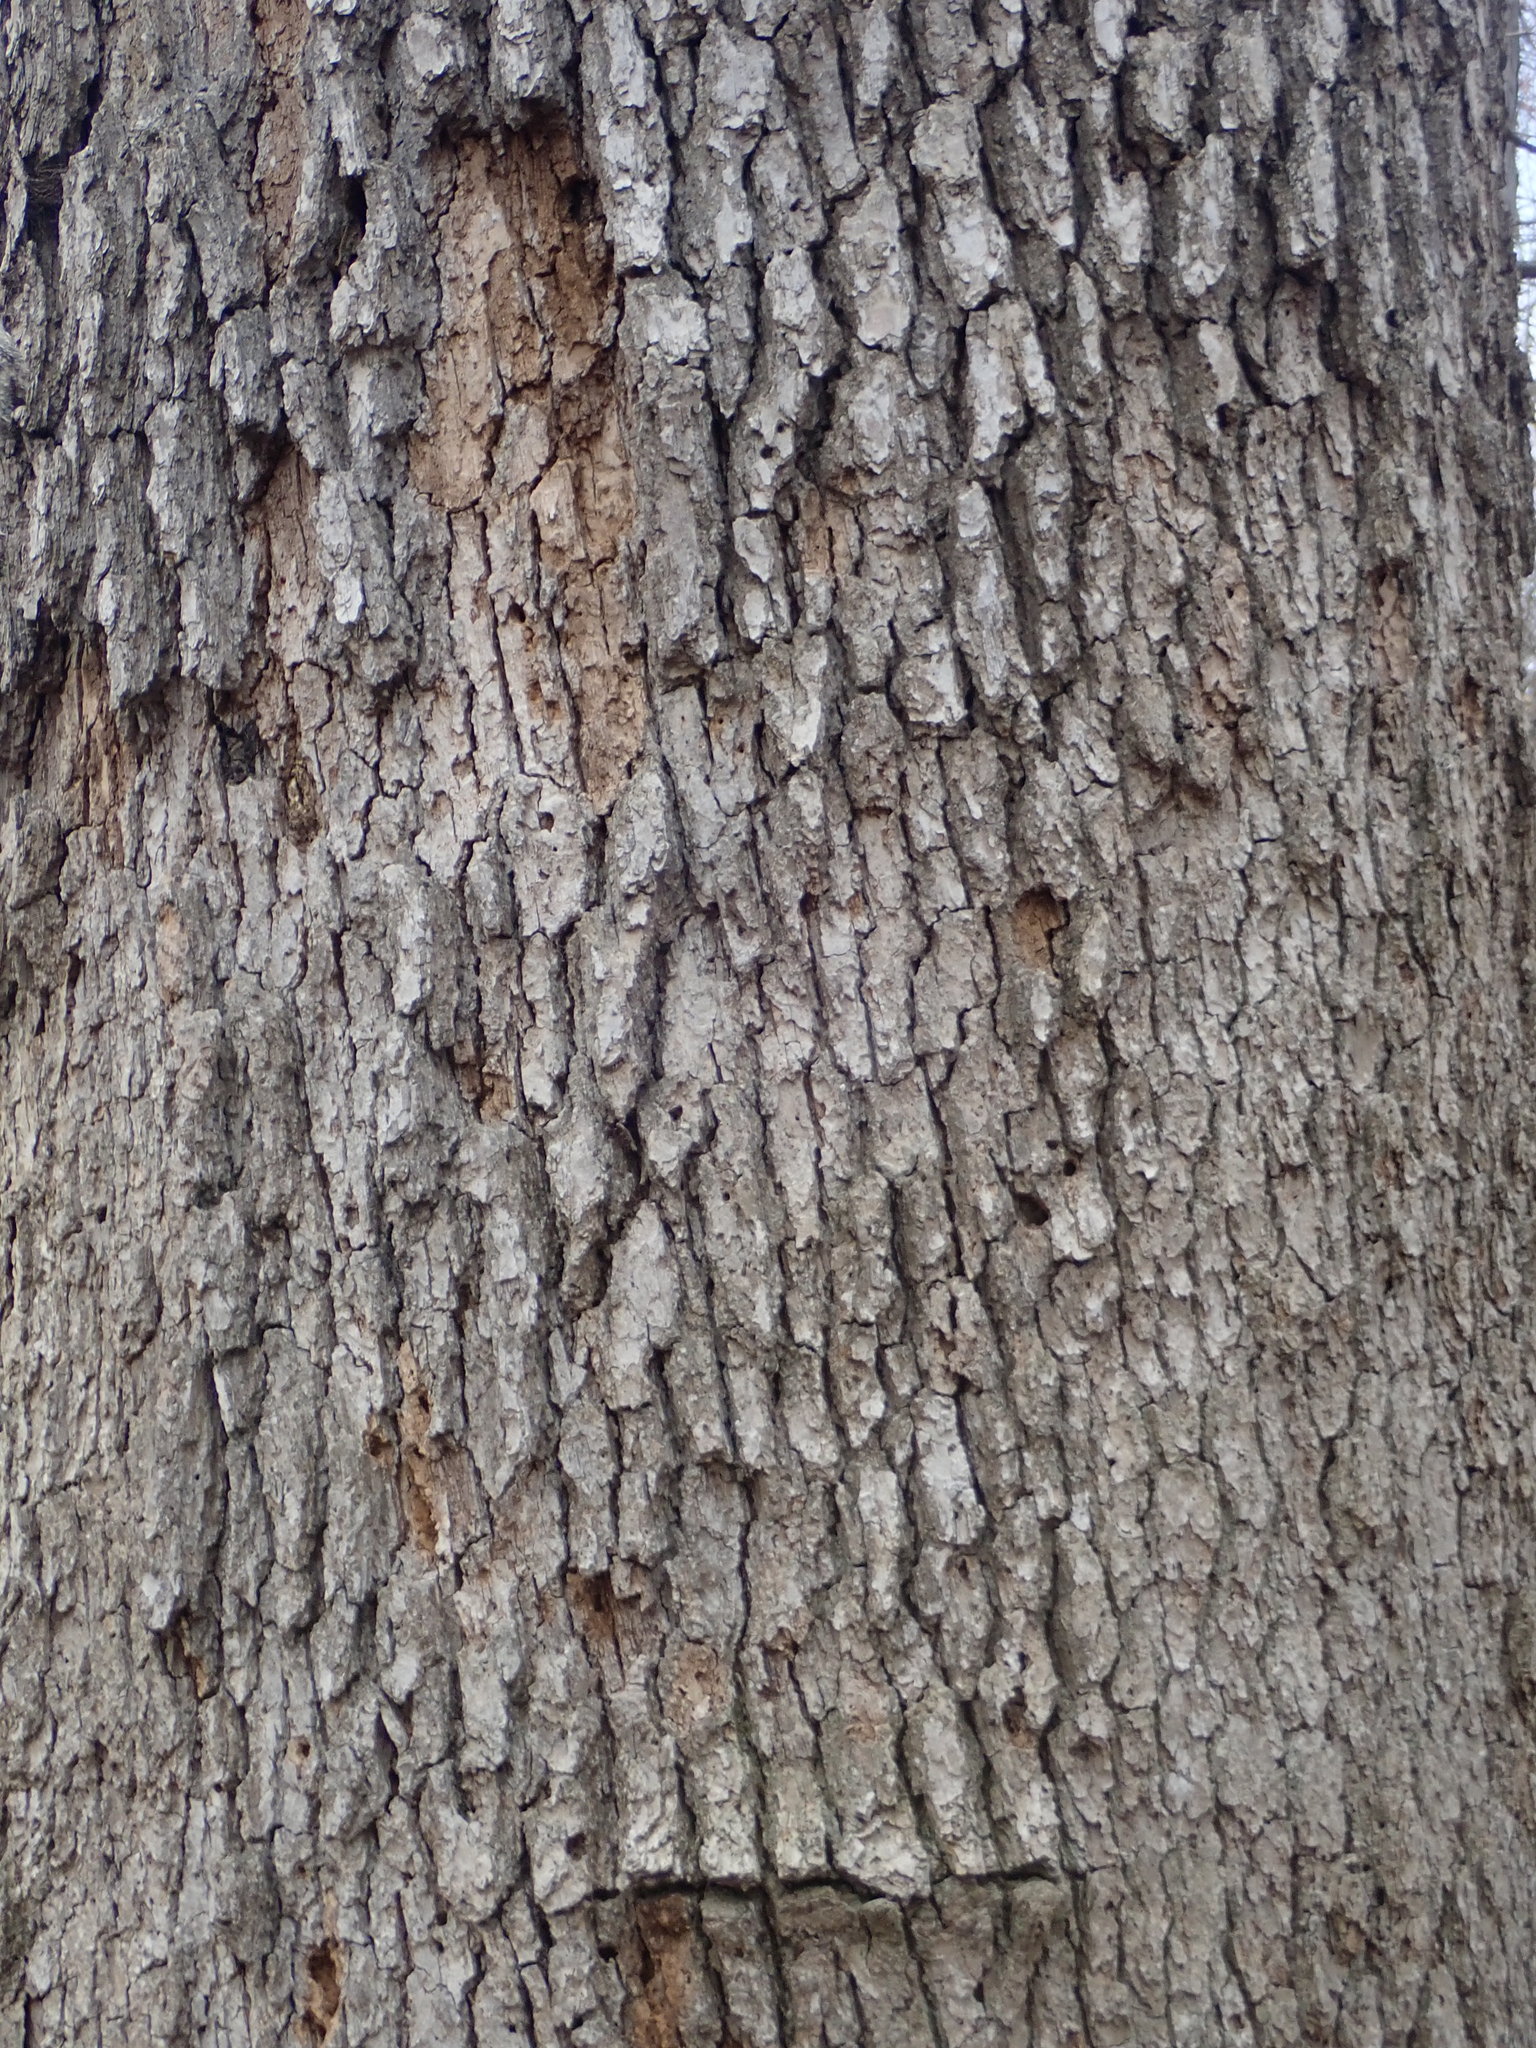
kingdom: Plantae
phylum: Tracheophyta
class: Magnoliopsida
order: Fagales
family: Fagaceae
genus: Quercus
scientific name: Quercus muehlenbergii
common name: Chinkapin oak
